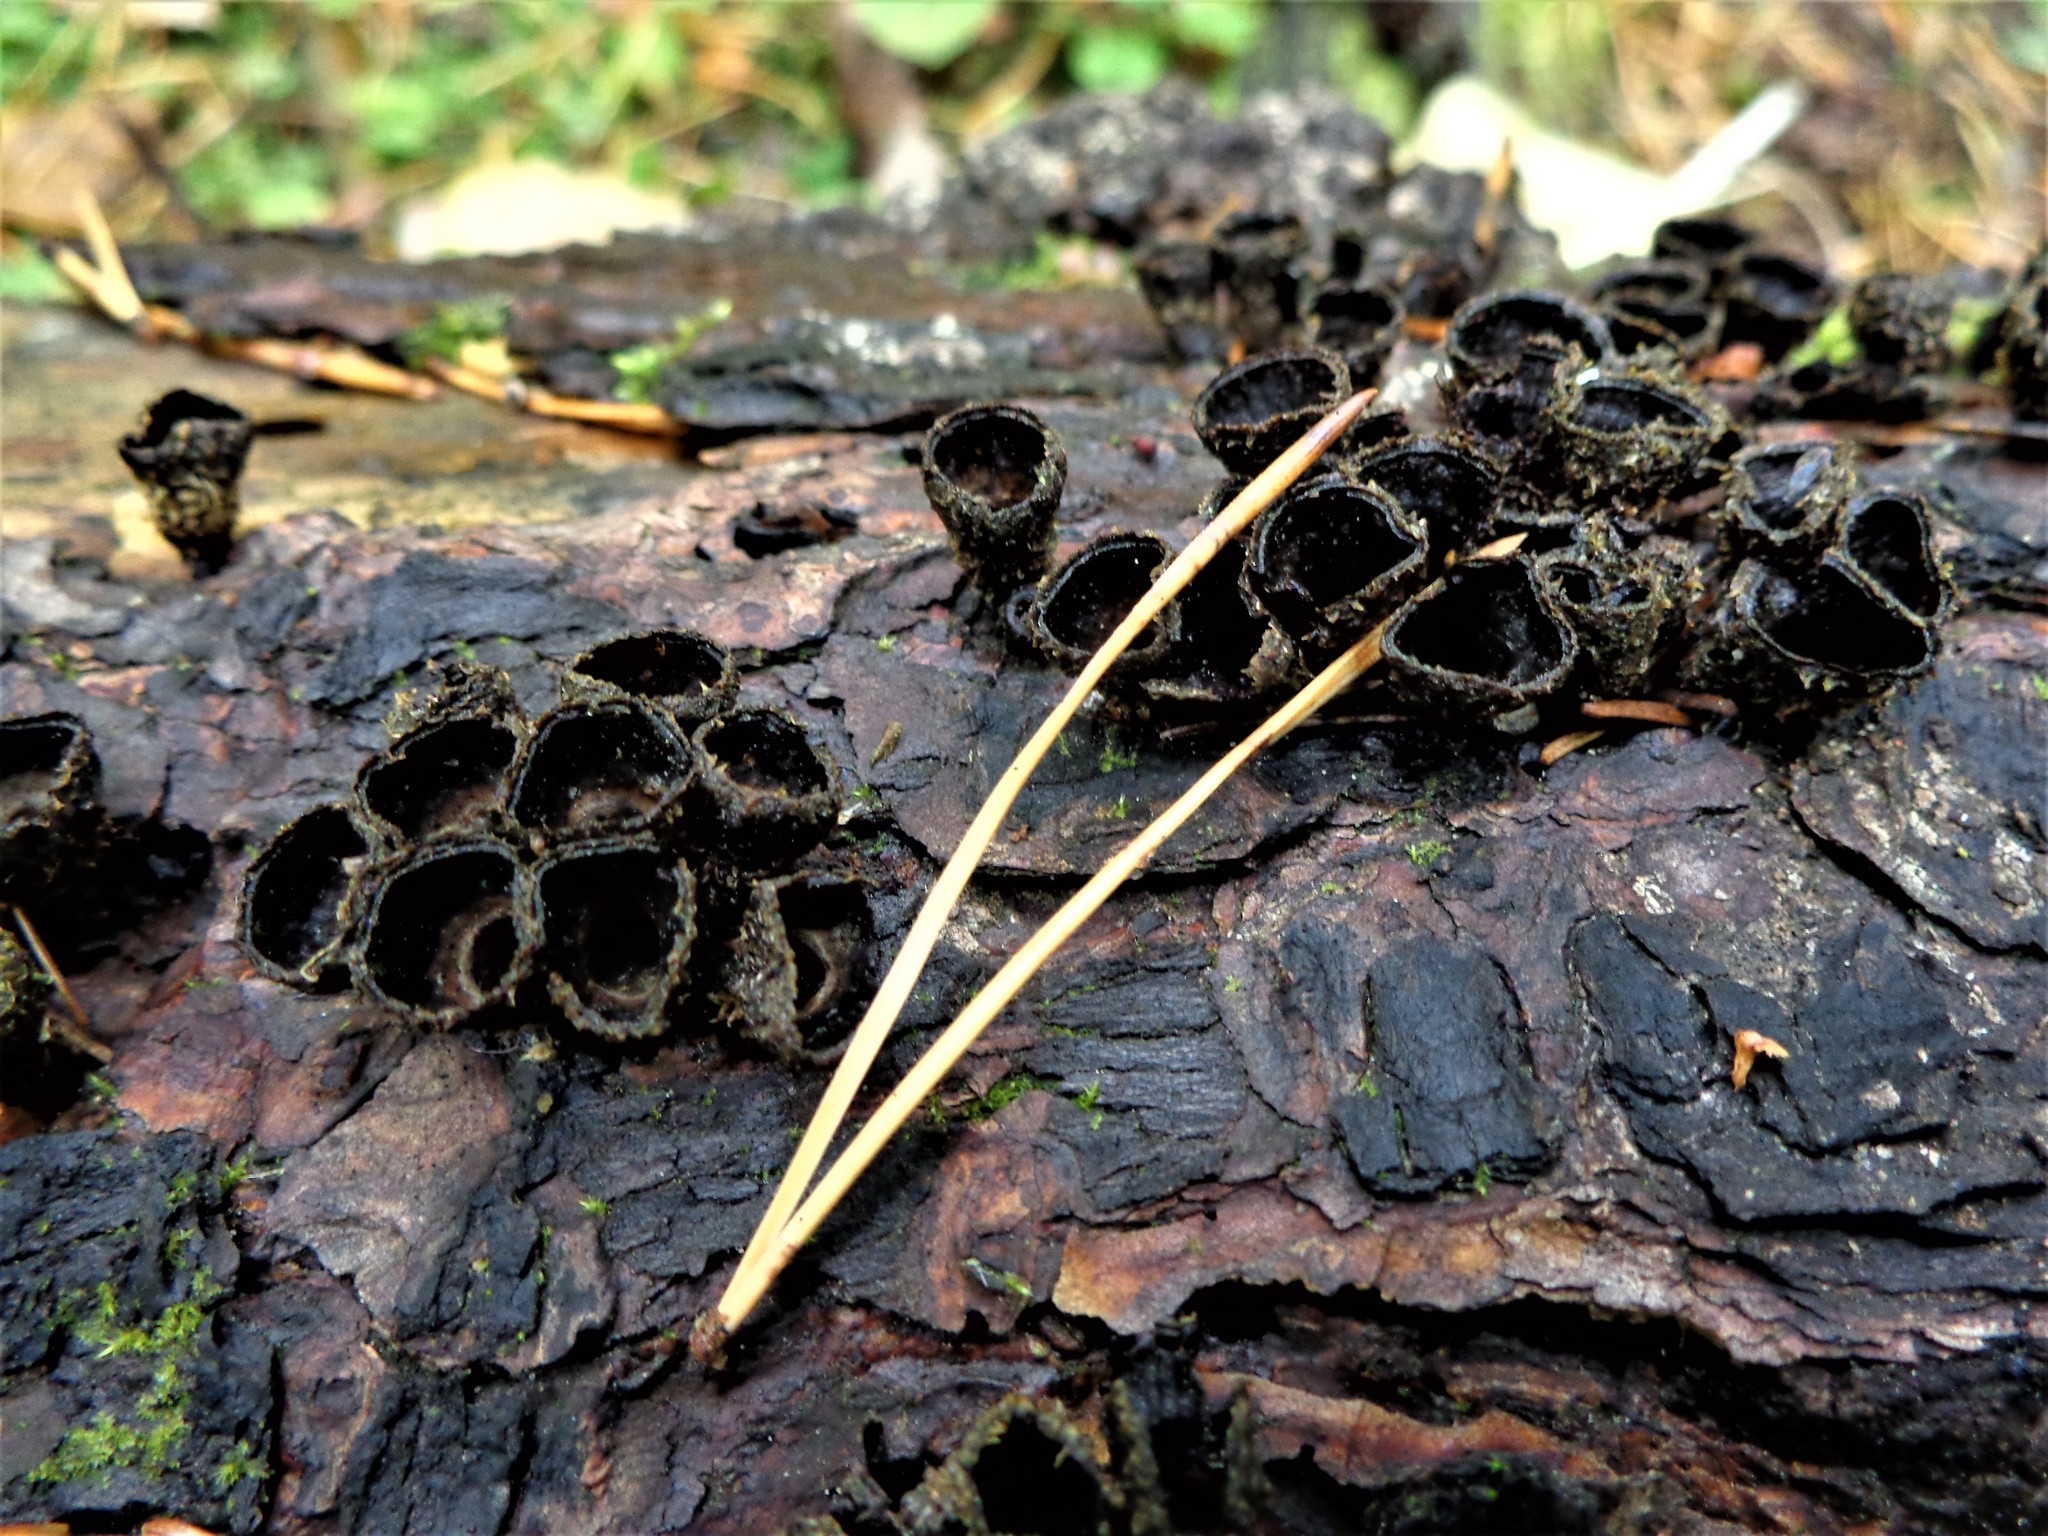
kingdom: Fungi
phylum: Basidiomycota
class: Agaricomycetes
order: Agaricales
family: Agaricaceae
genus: Cyathus
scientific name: Cyathus striatus
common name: Fluted bird's nest
